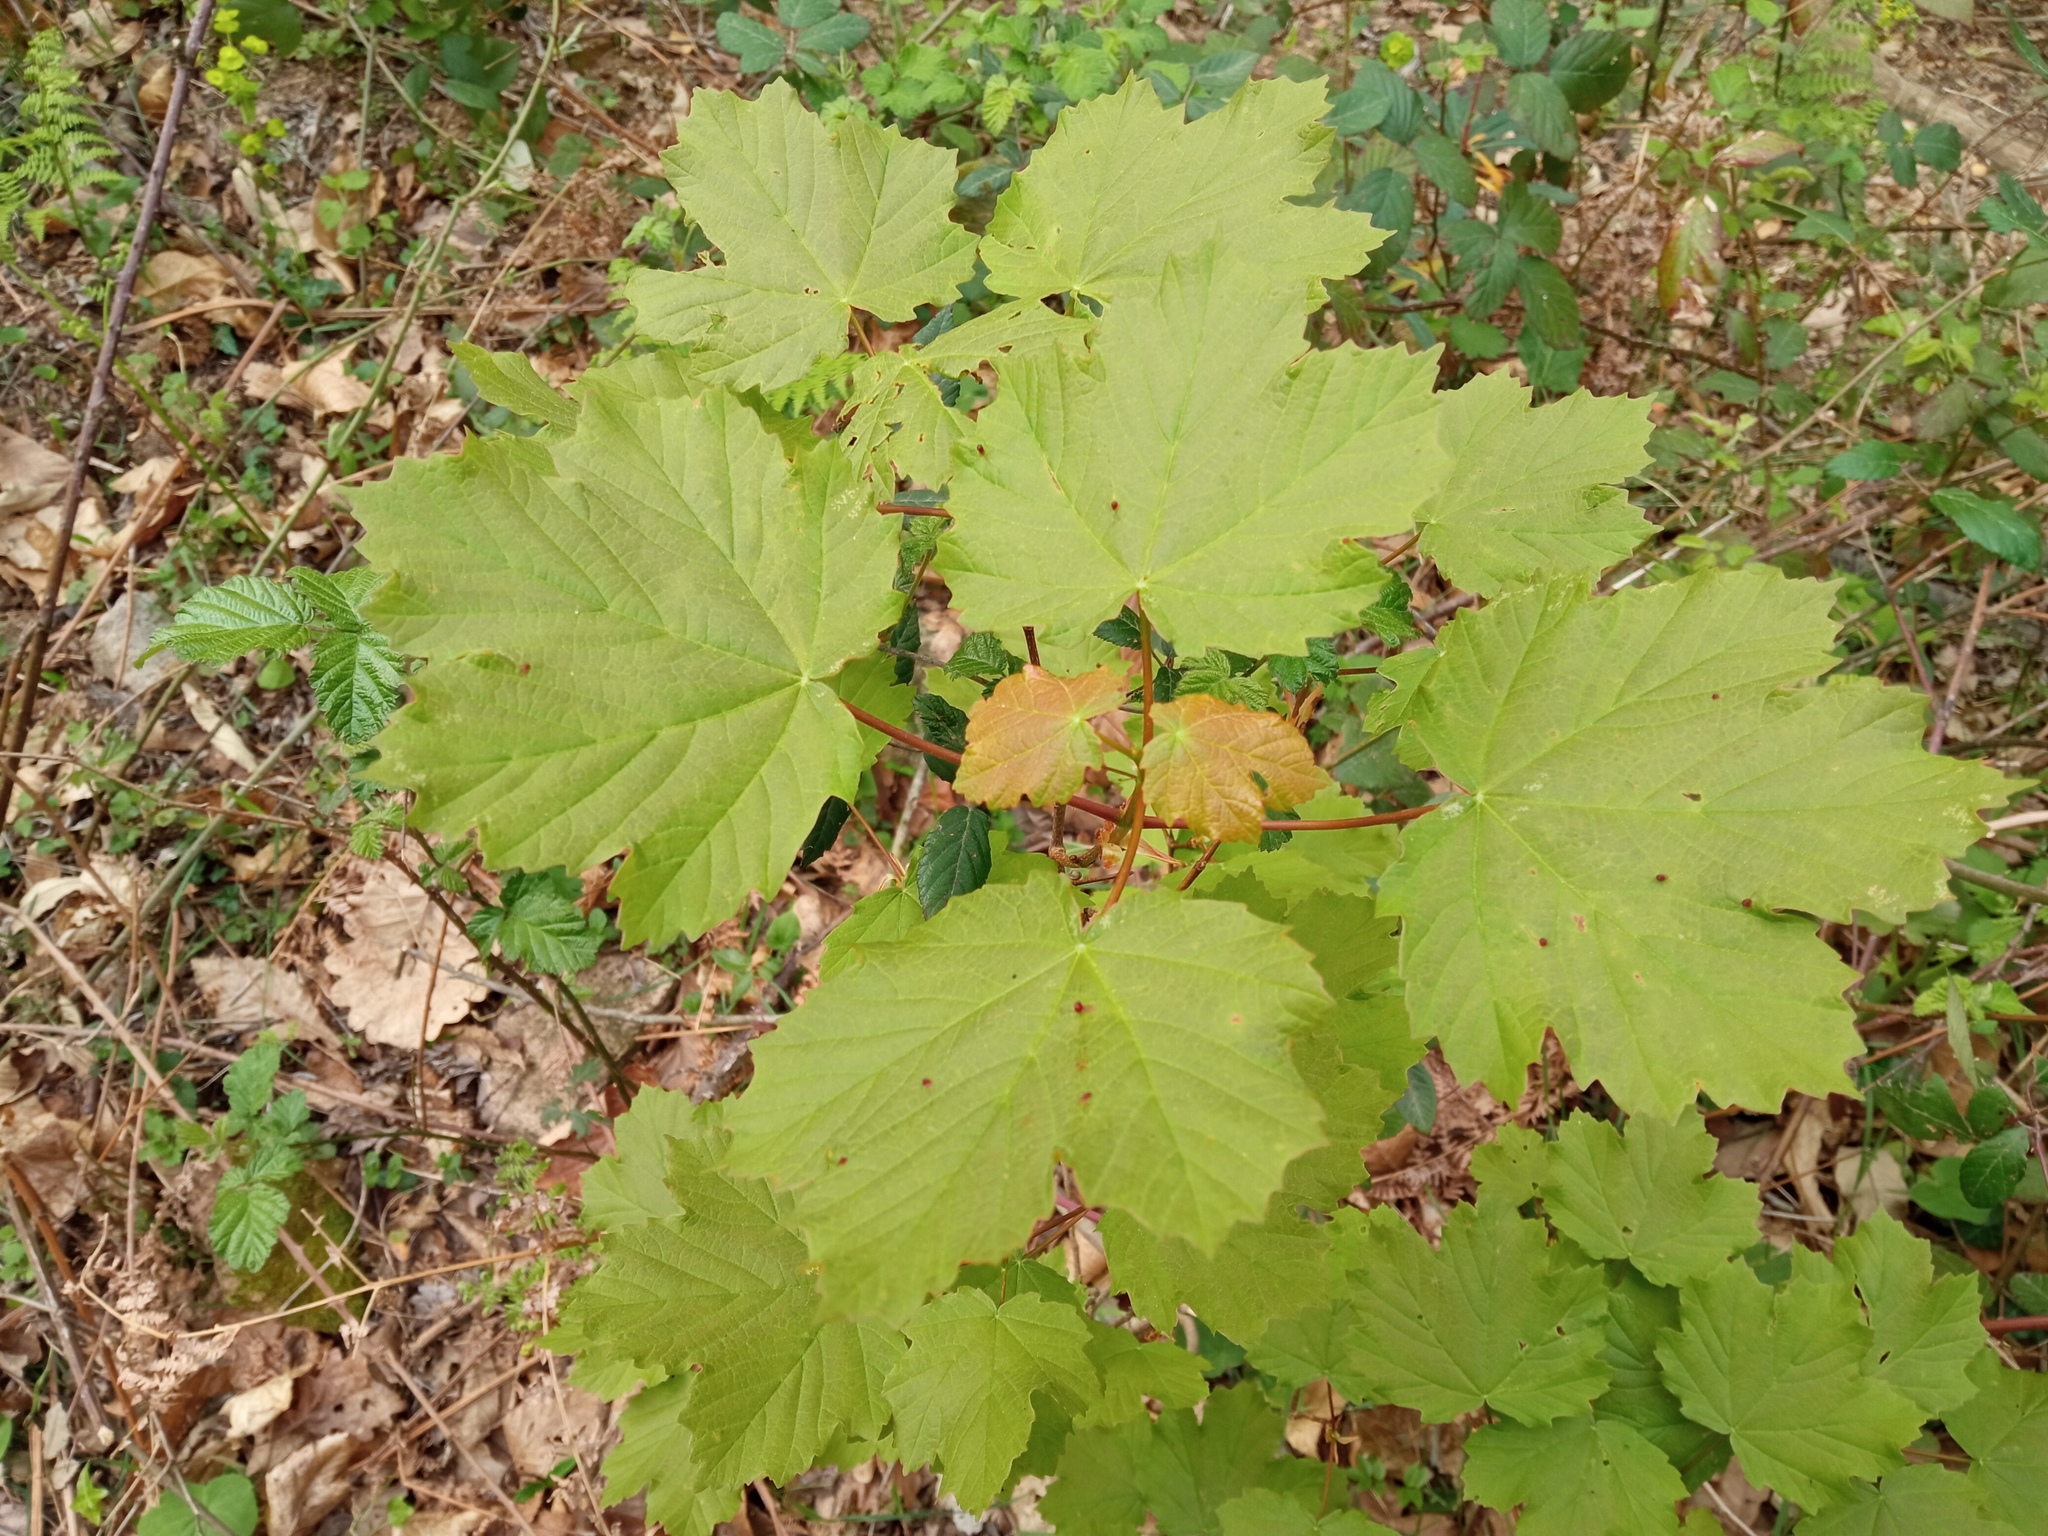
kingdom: Plantae
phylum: Tracheophyta
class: Magnoliopsida
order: Sapindales
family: Sapindaceae
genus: Acer
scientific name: Acer opalus
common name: Italian maple
